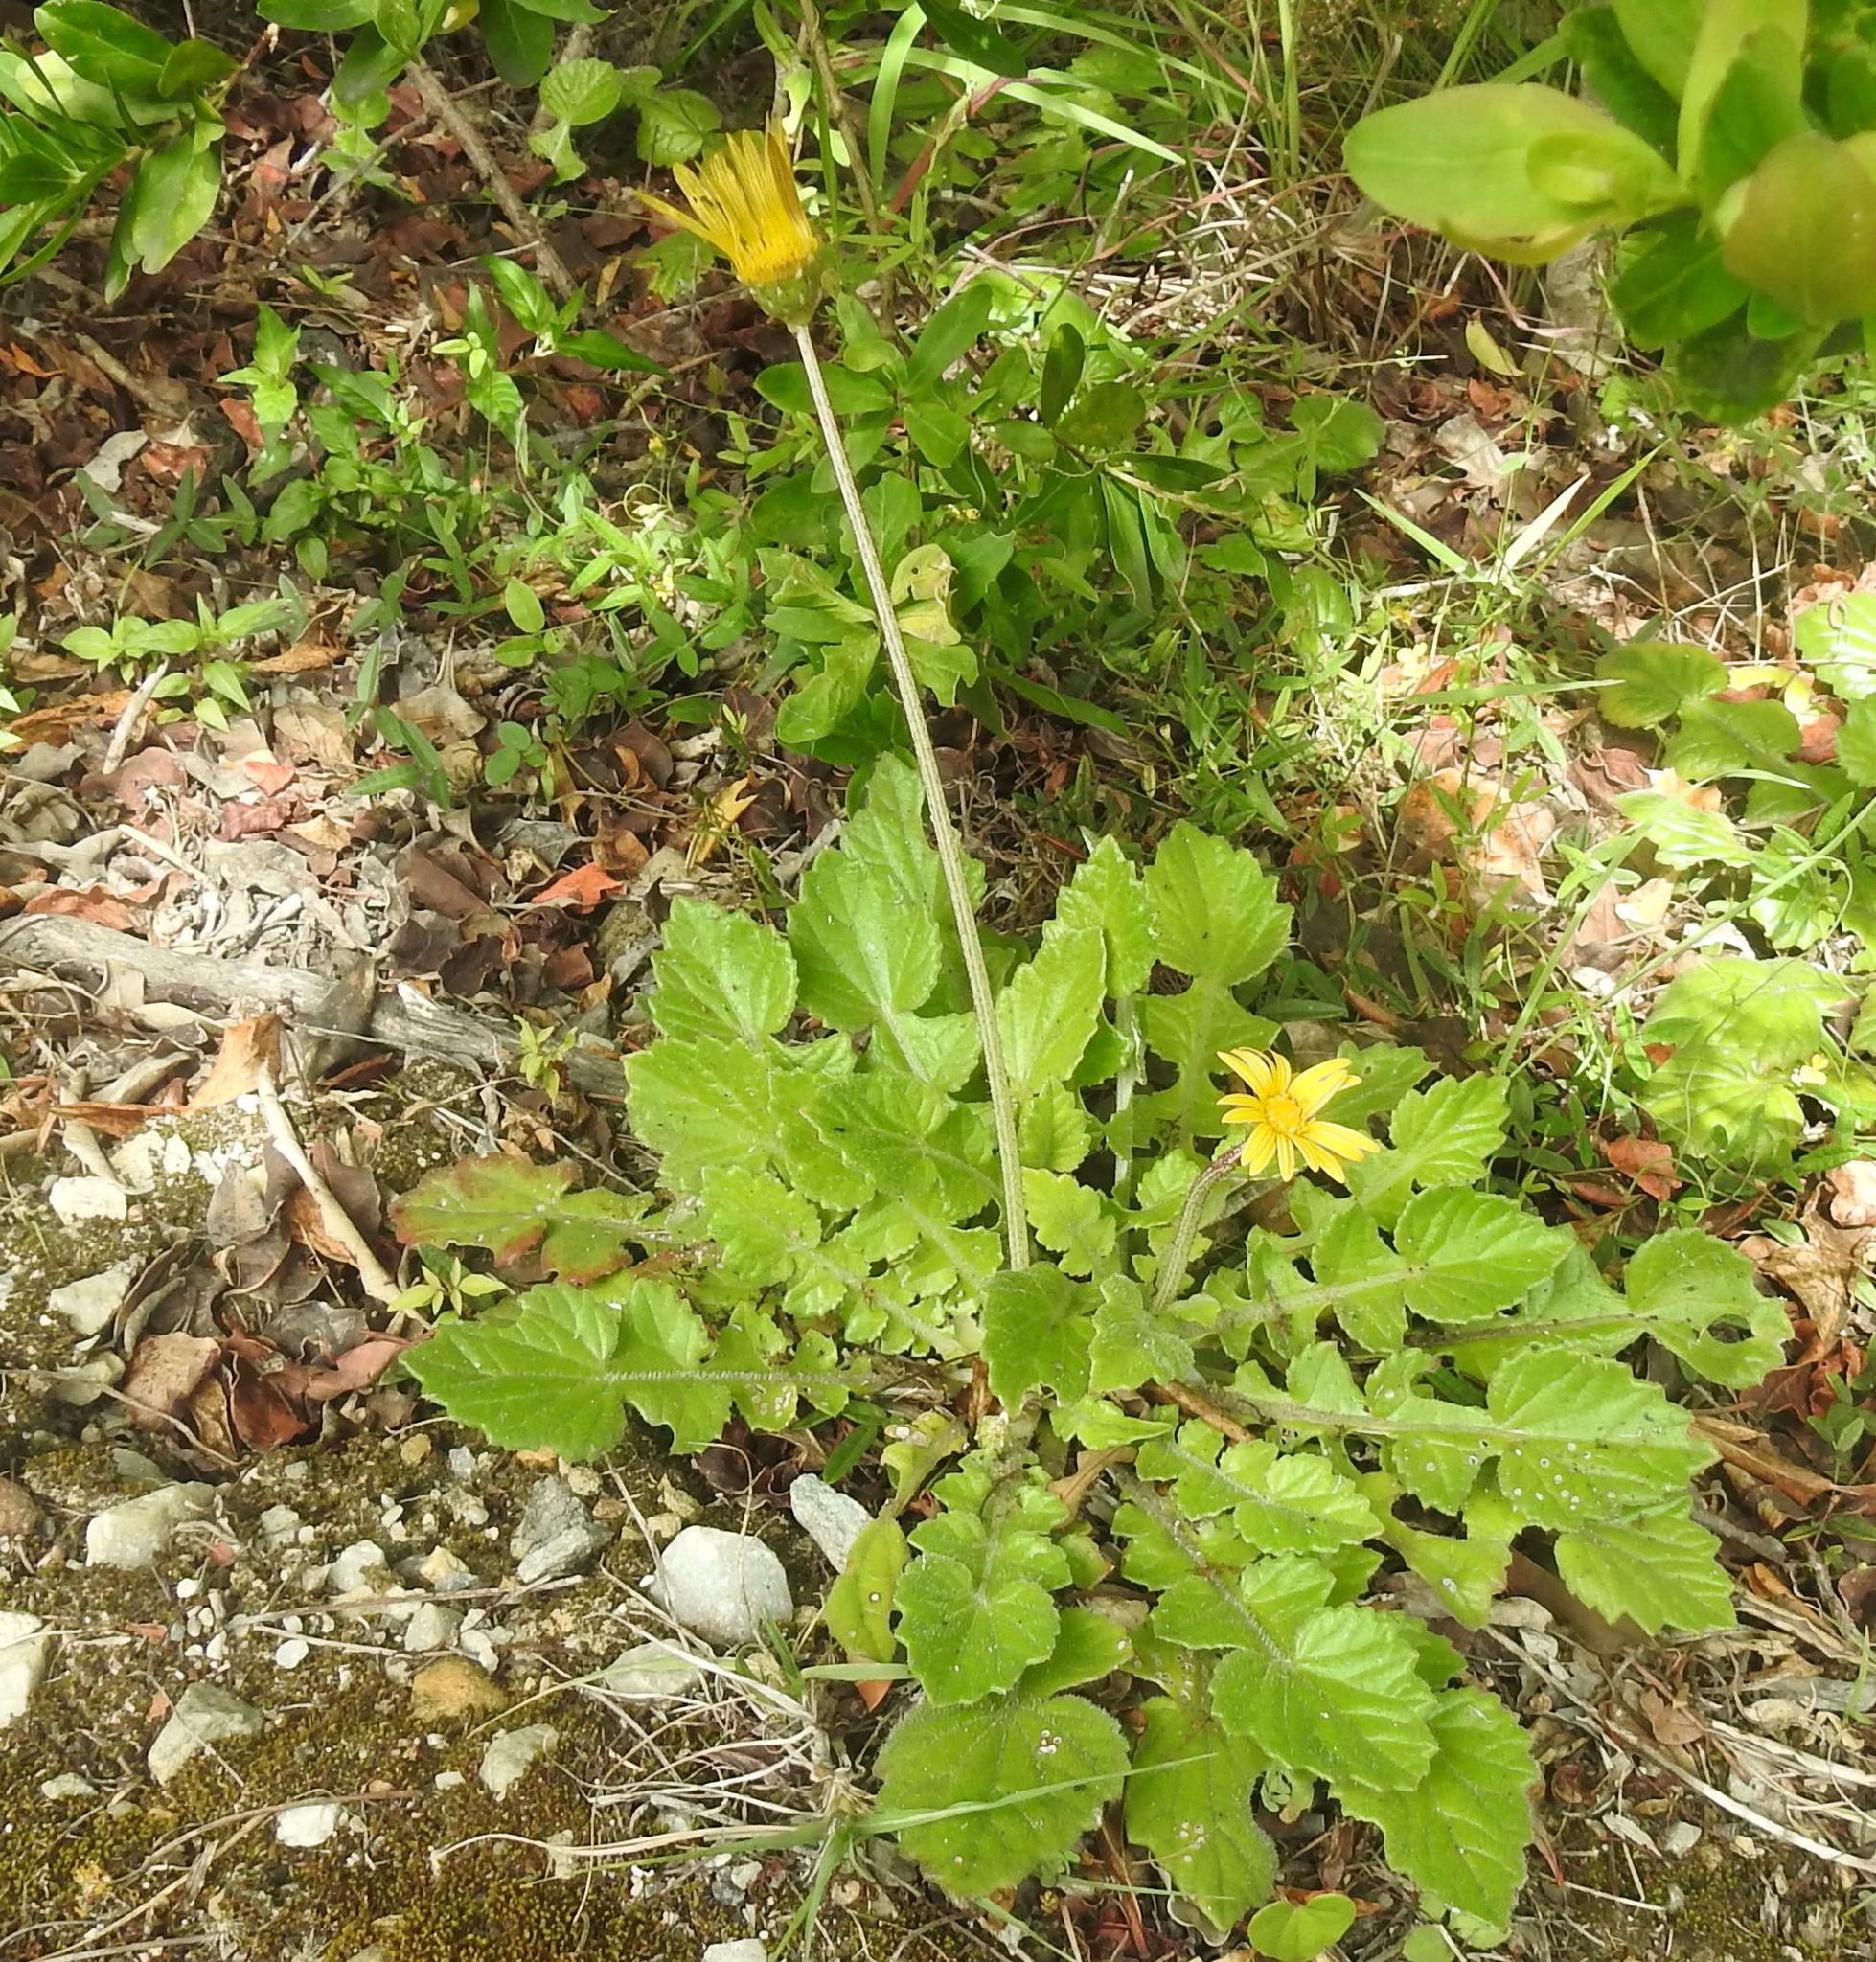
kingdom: Plantae
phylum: Tracheophyta
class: Magnoliopsida
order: Asterales
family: Asteraceae
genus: Arctotheca
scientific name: Arctotheca prostrata
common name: Capeweed
